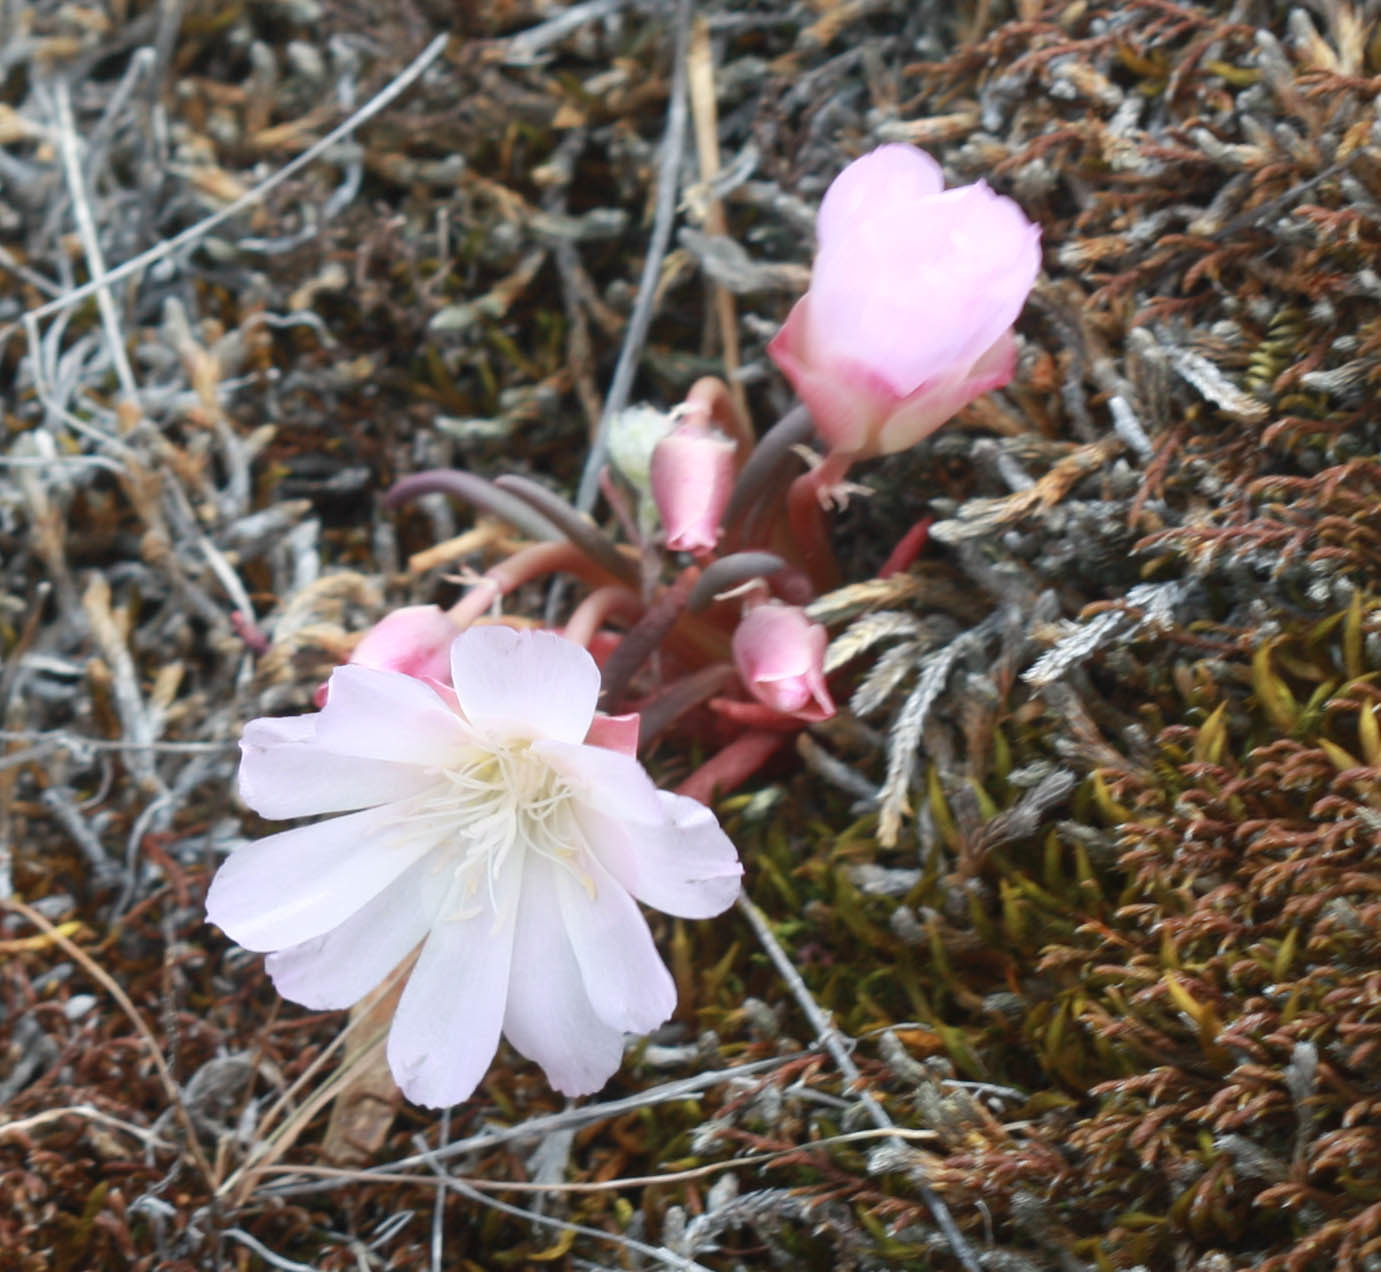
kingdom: Plantae
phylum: Tracheophyta
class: Magnoliopsida
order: Caryophyllales
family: Montiaceae
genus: Lewisia
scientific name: Lewisia rediviva
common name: Bitter-root
